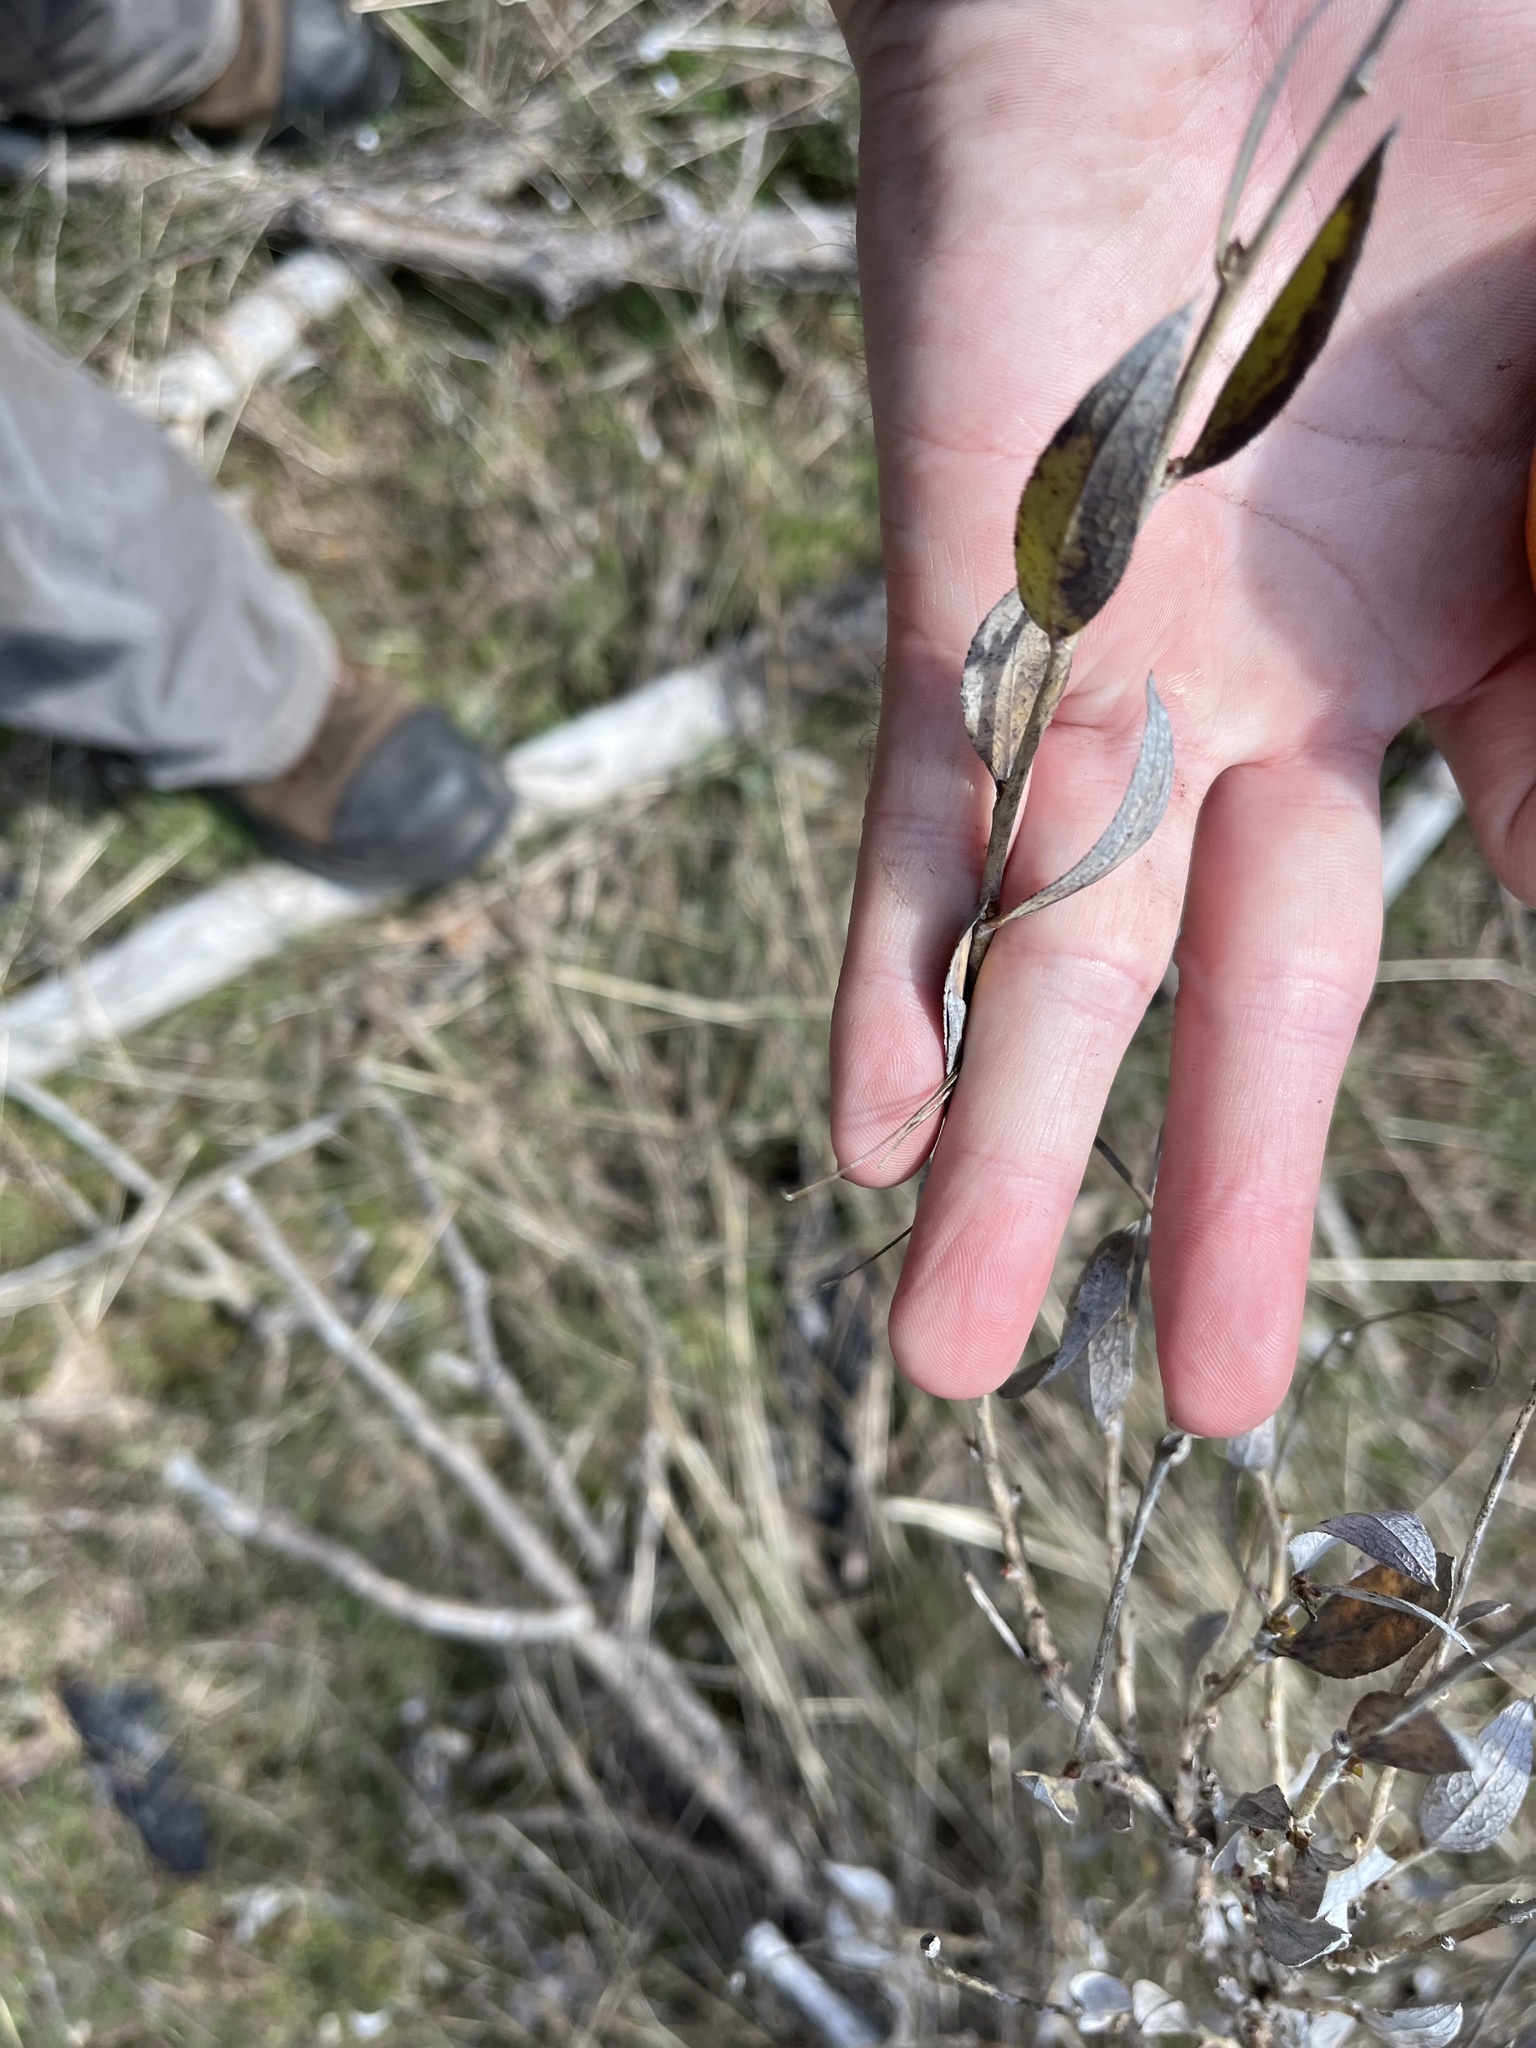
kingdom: Plantae
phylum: Tracheophyta
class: Magnoliopsida
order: Ranunculales
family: Papaveraceae
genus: Dendromecon
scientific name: Dendromecon rigida
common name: Tree poppy
